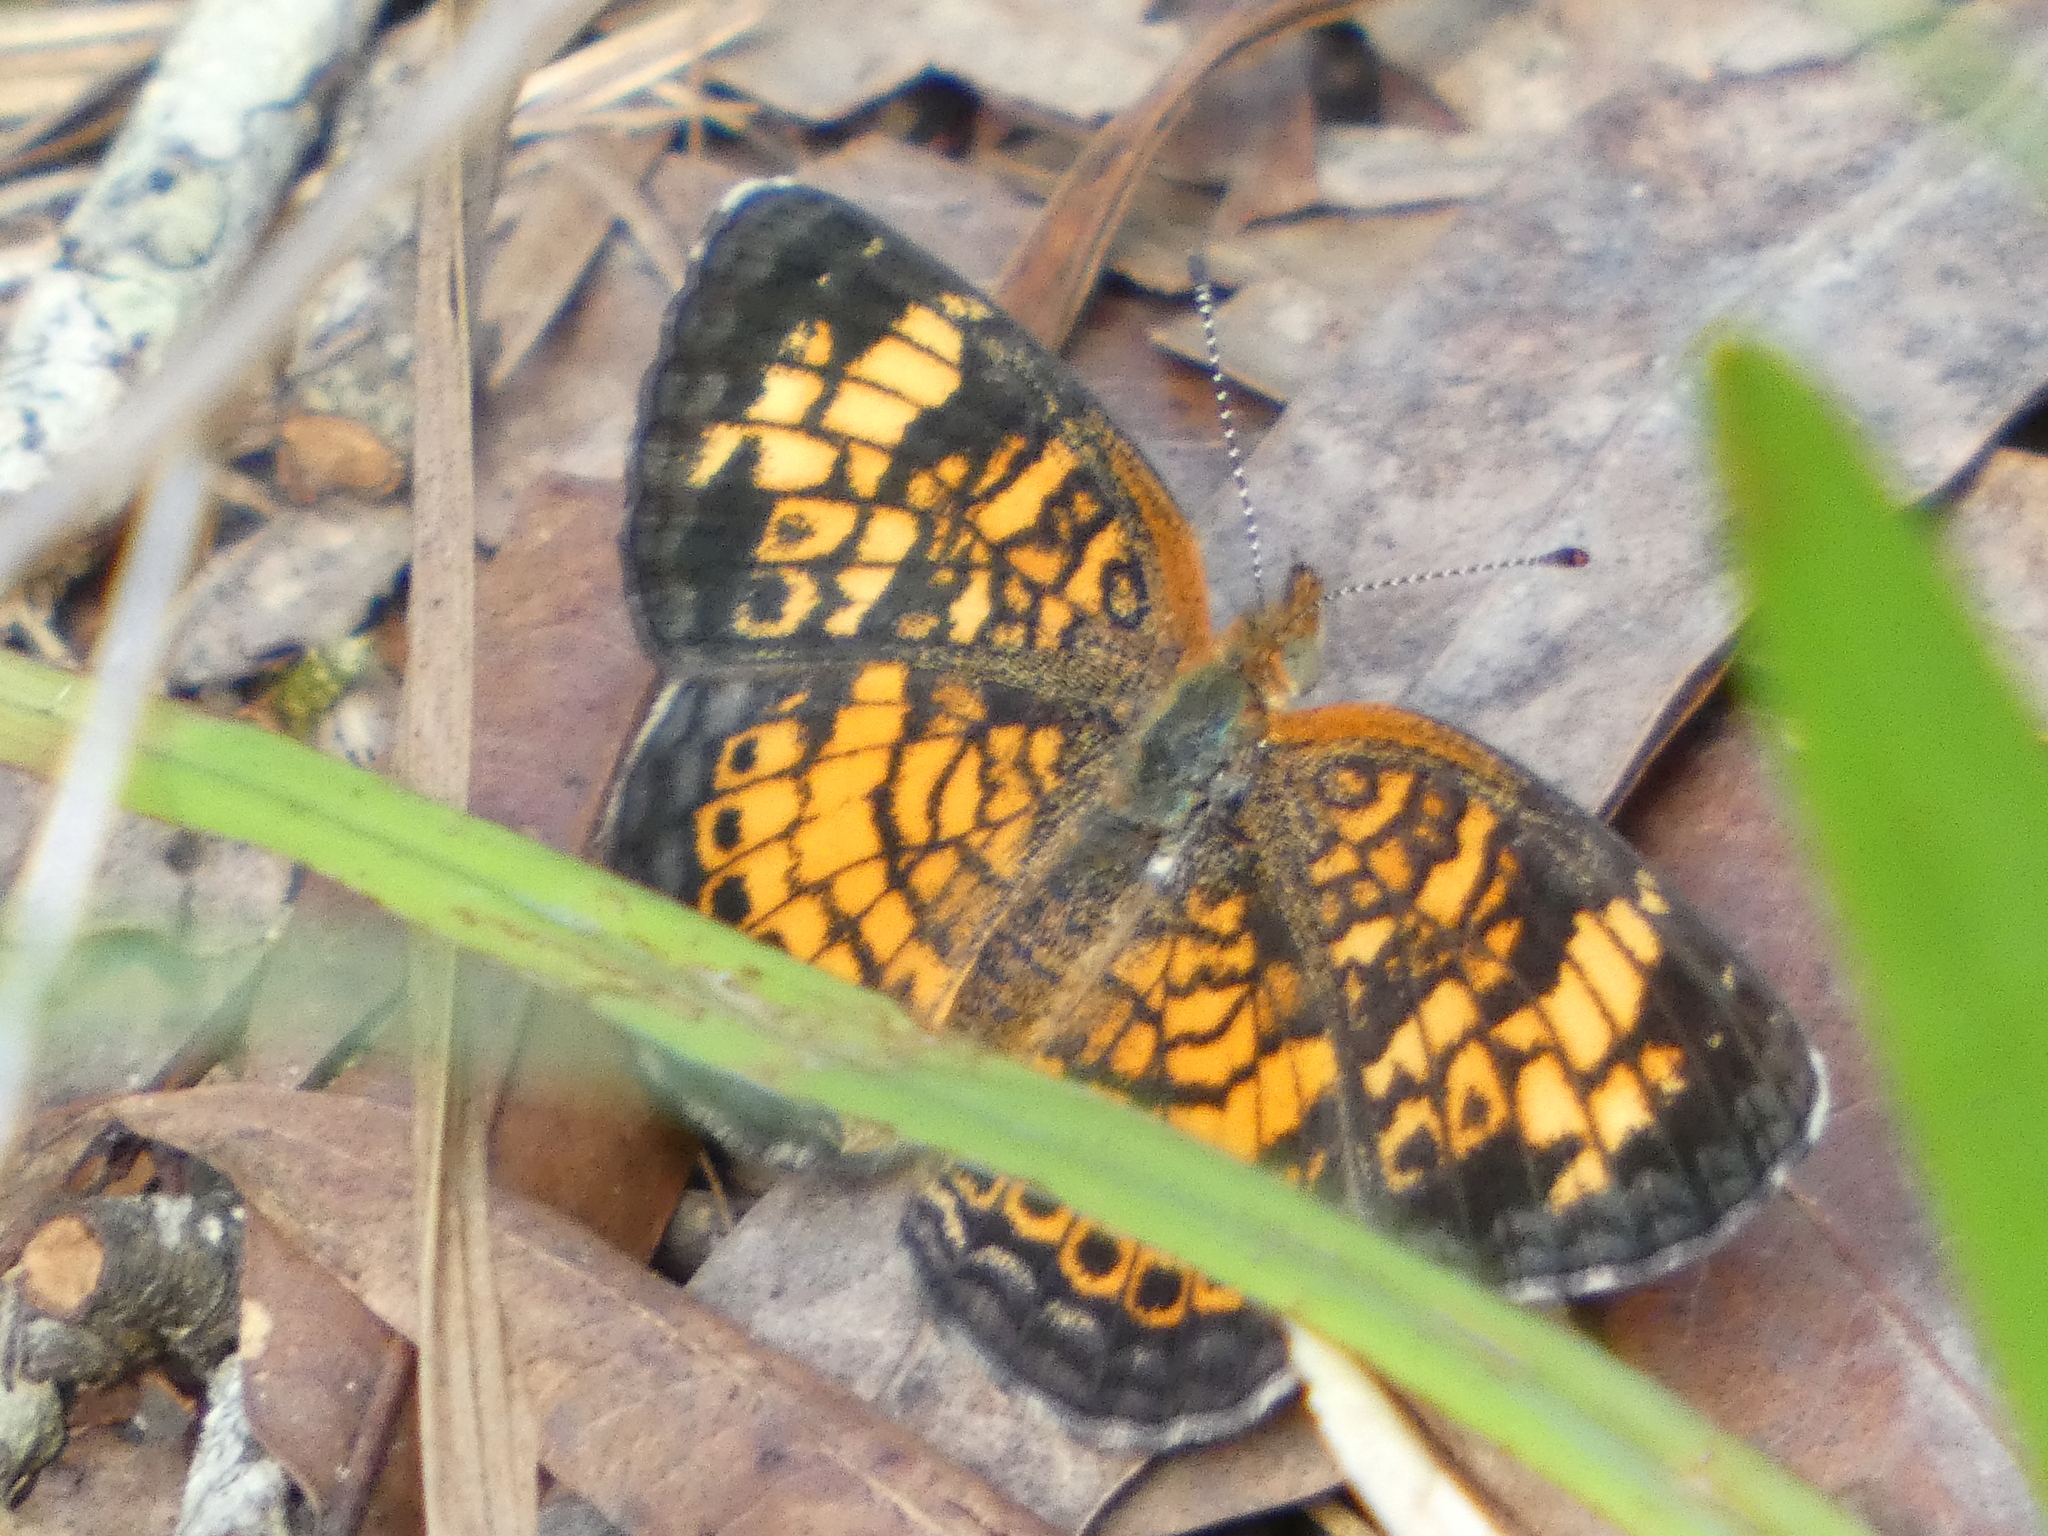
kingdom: Animalia
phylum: Arthropoda
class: Insecta
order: Lepidoptera
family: Nymphalidae
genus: Phyciodes
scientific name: Phyciodes tharos
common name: Pearl crescent
